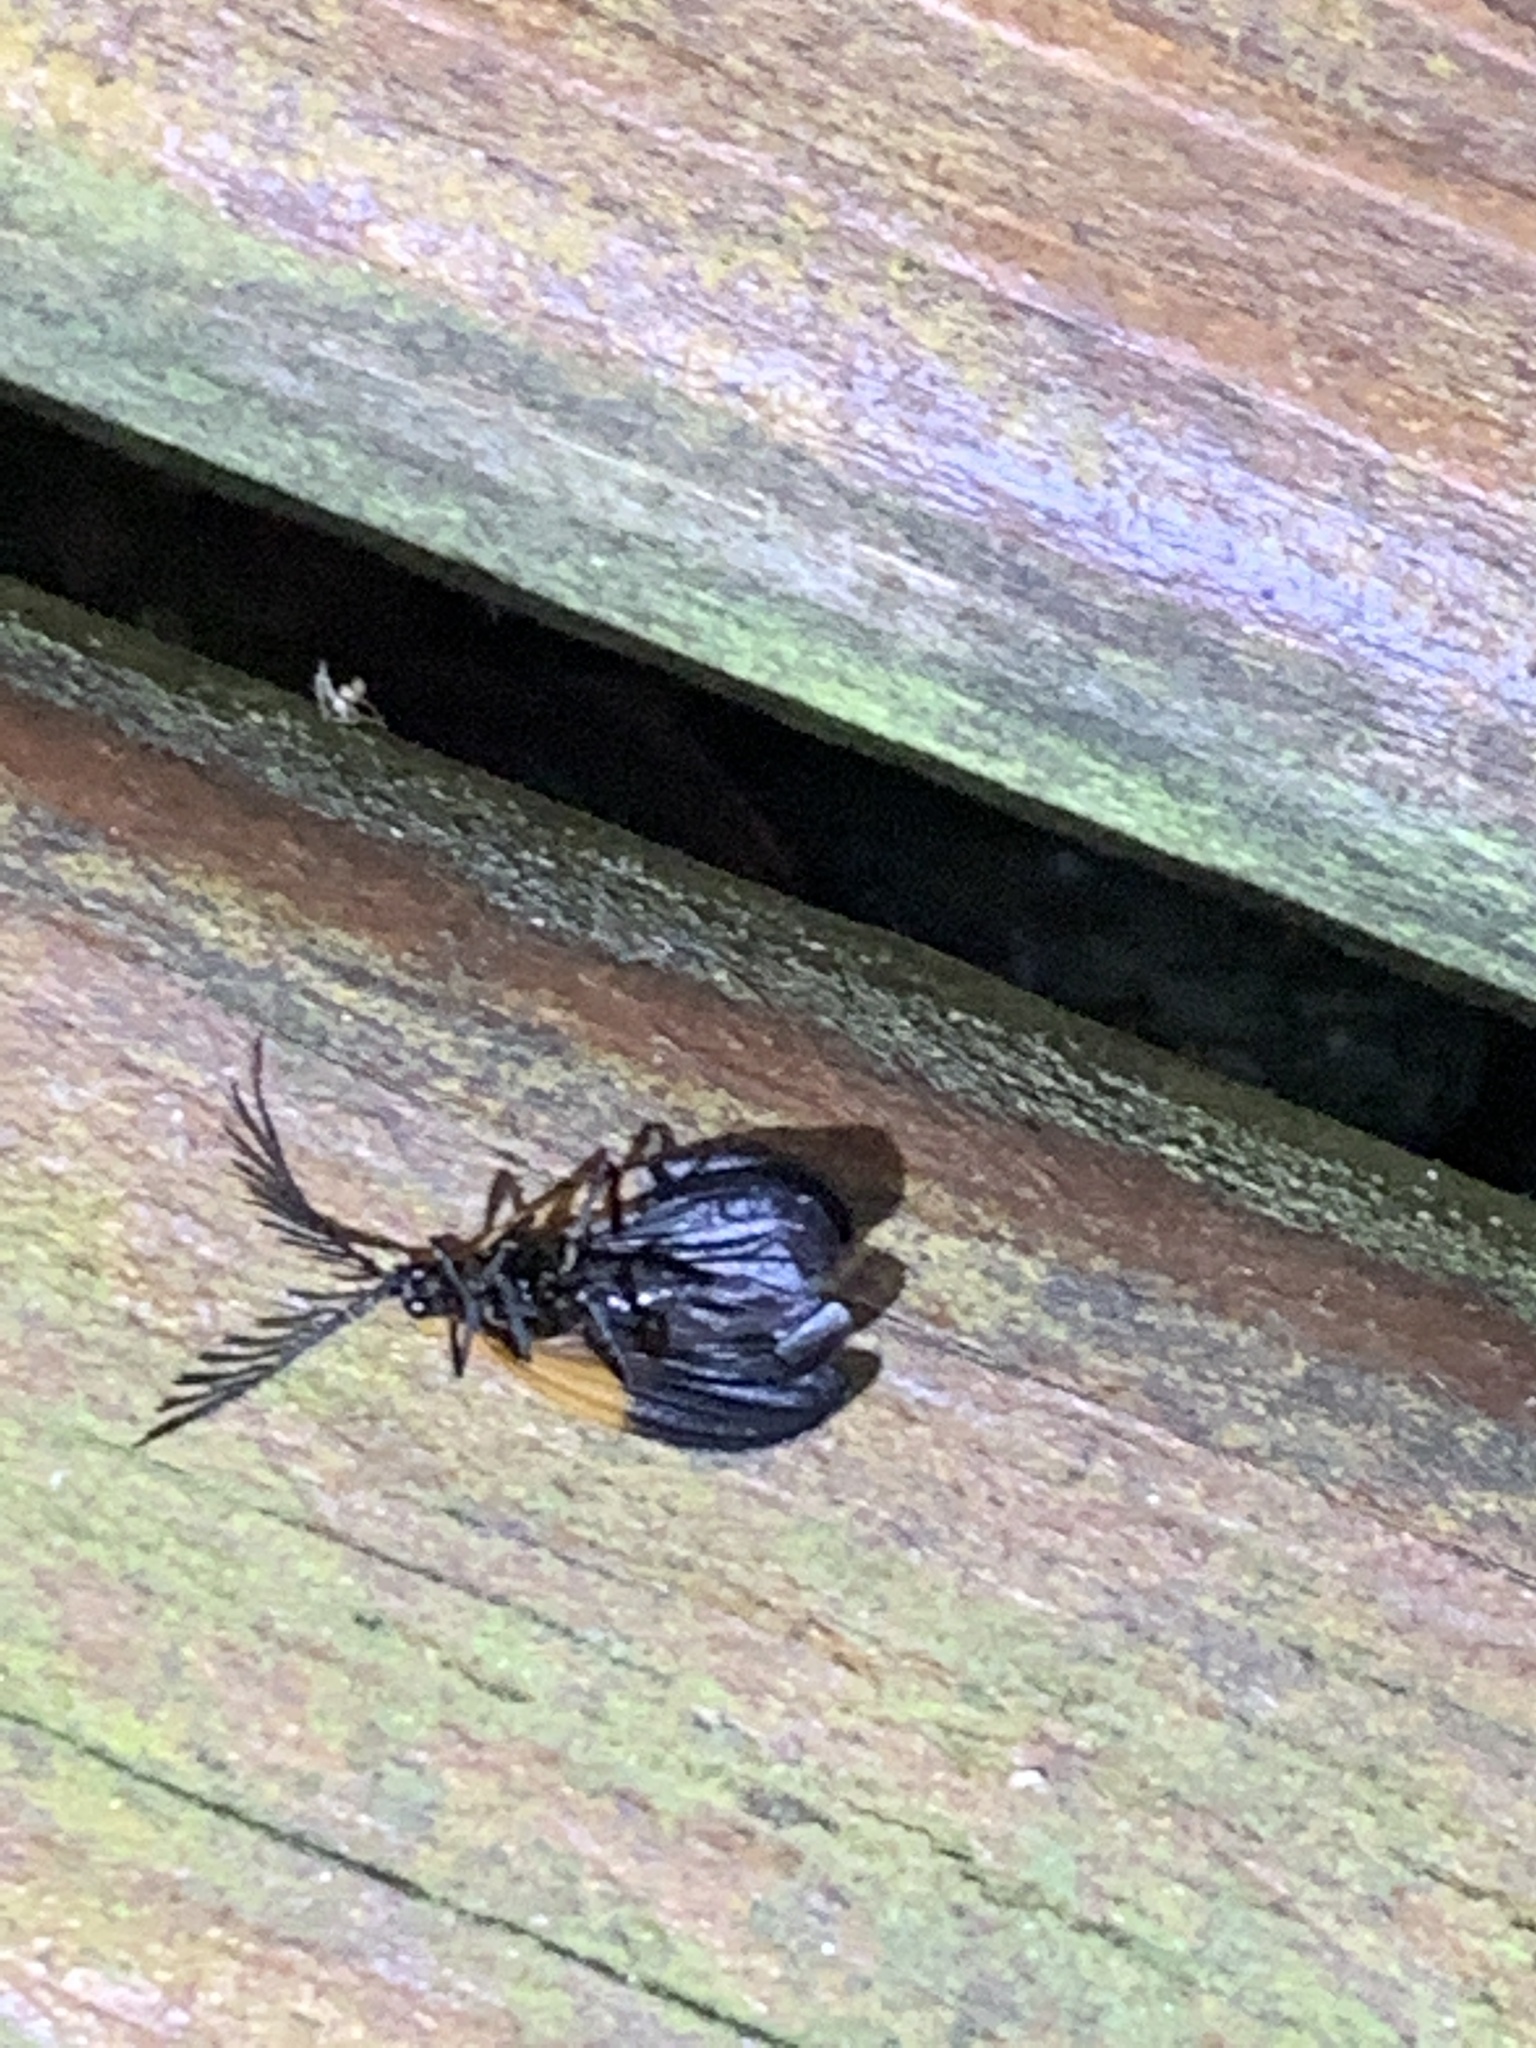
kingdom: Animalia
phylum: Arthropoda
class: Insecta
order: Coleoptera
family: Lycidae
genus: Caenia
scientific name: Caenia dimidiata
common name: Terminal net-winged beetle
